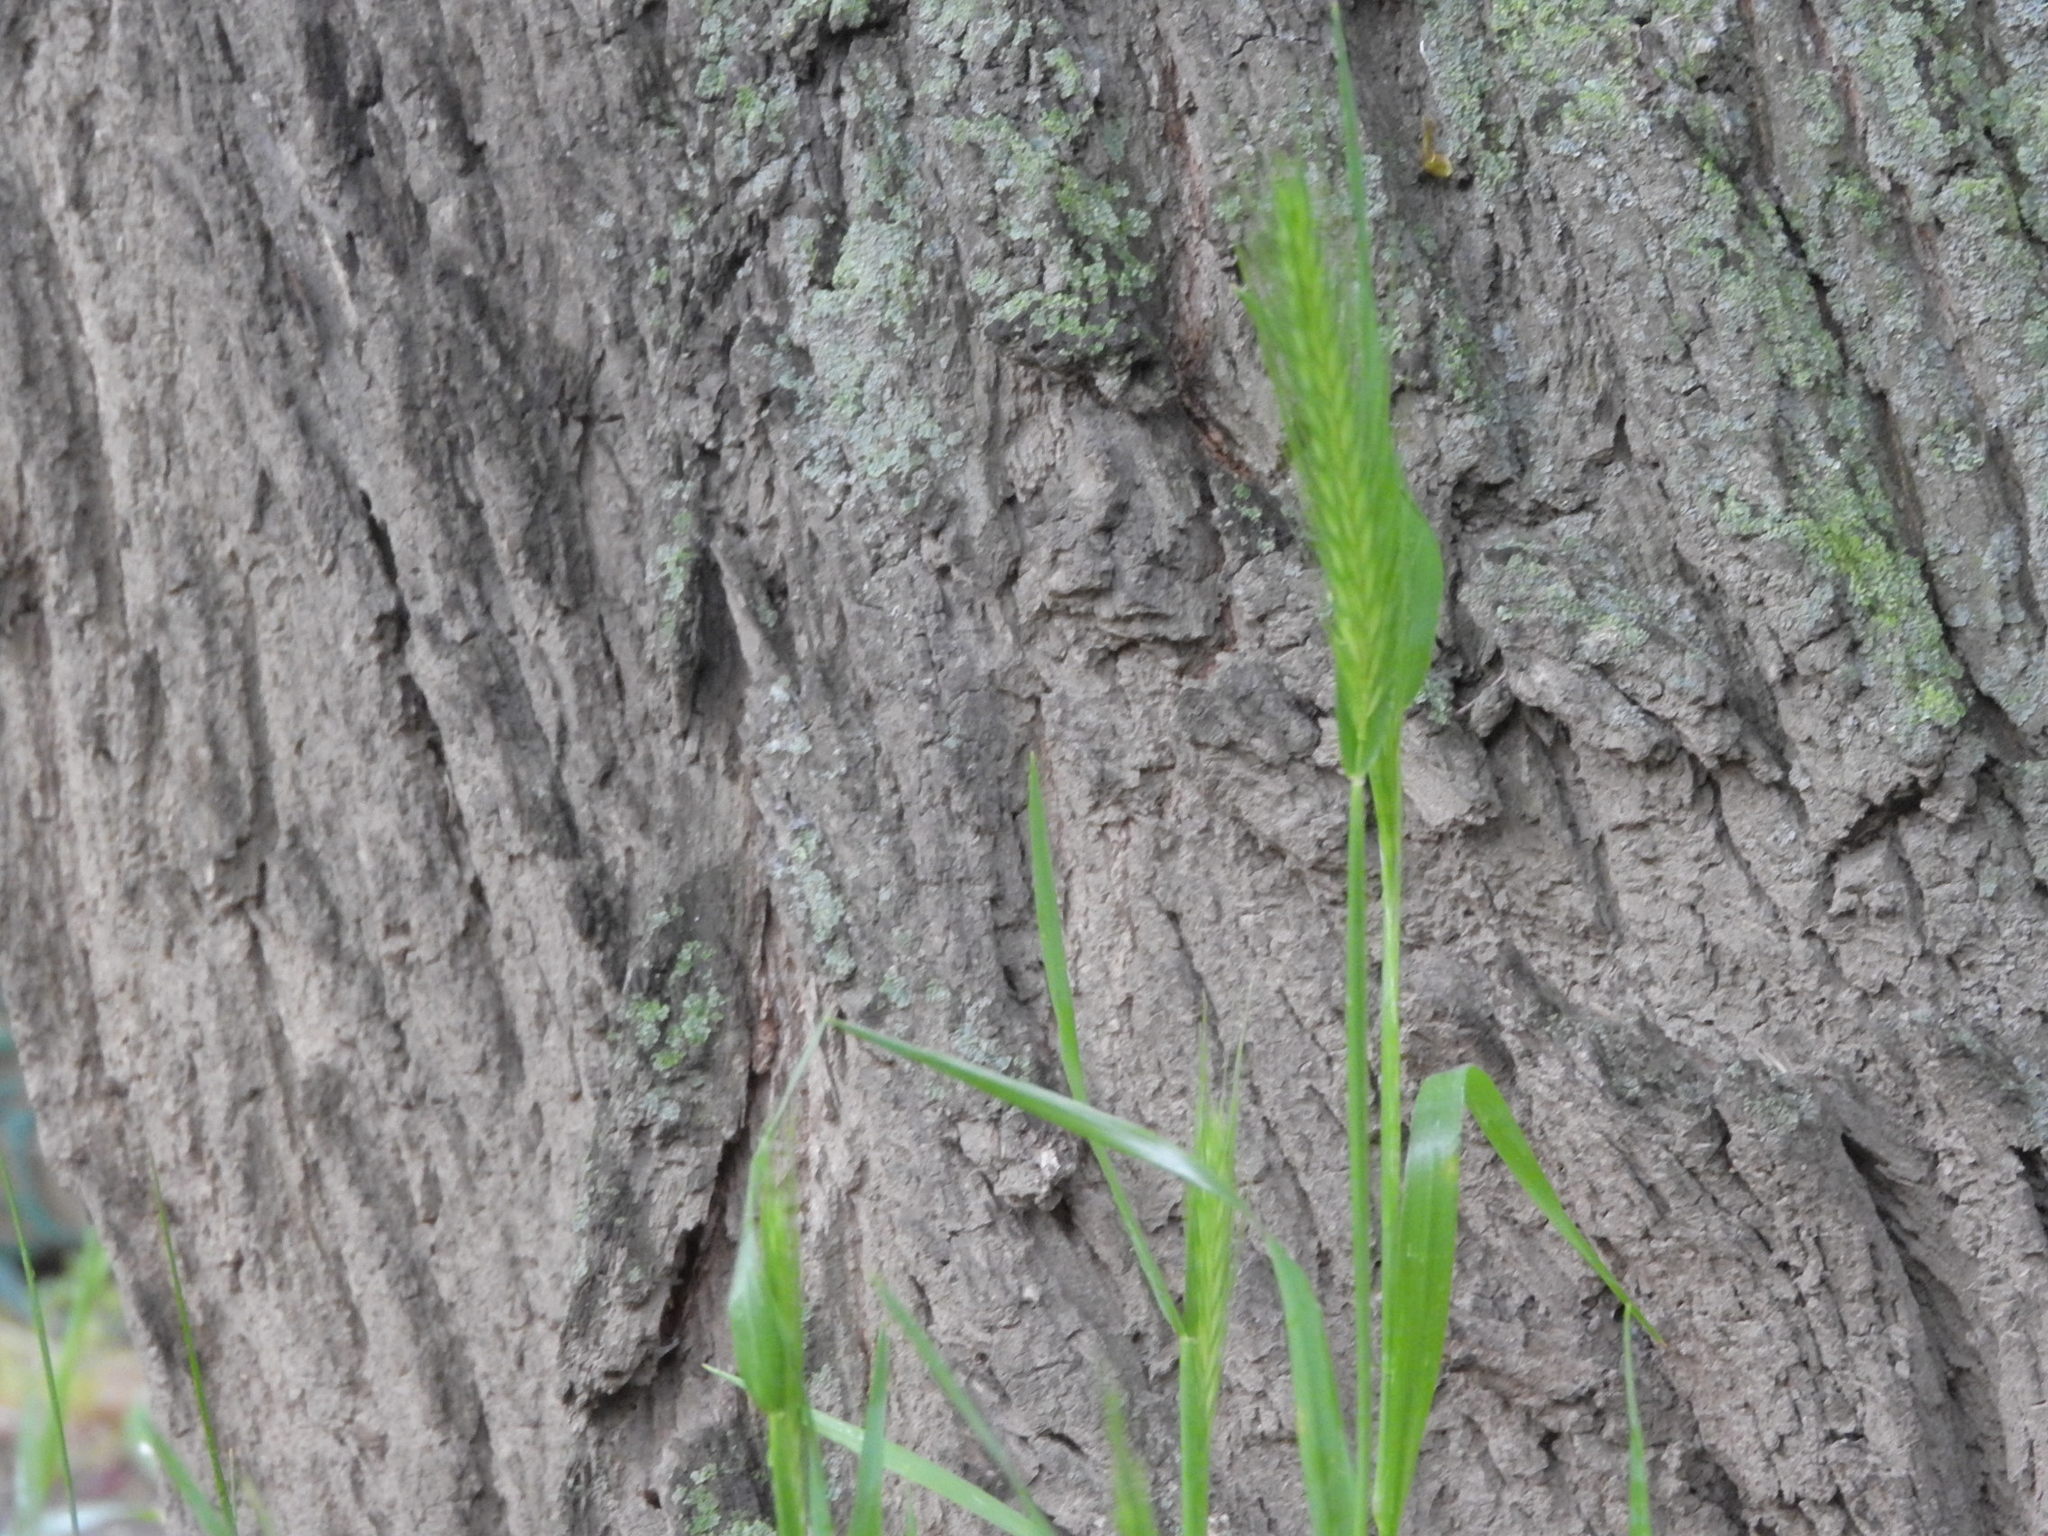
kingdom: Plantae
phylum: Tracheophyta
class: Liliopsida
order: Poales
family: Poaceae
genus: Hordeum
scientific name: Hordeum murinum
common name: Wall barley
